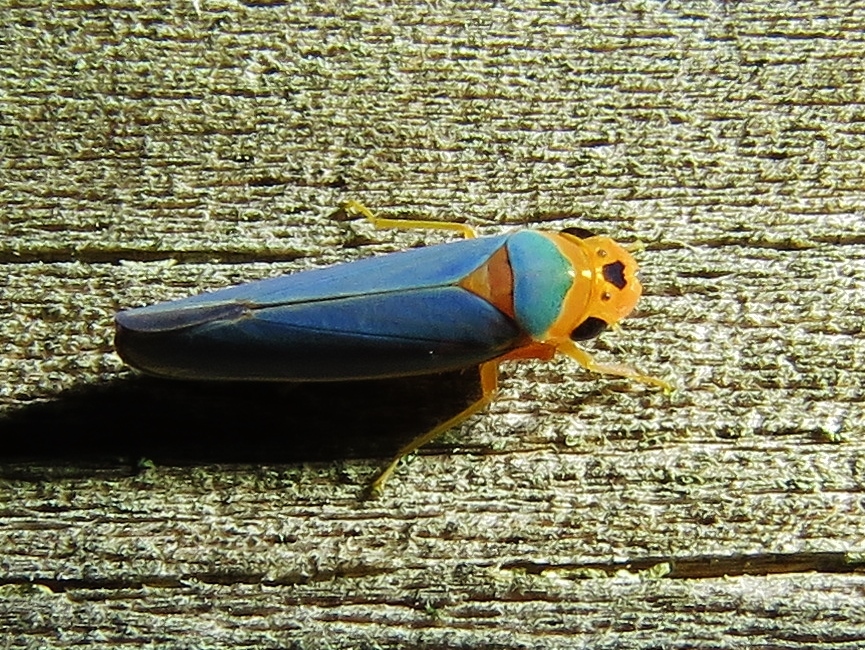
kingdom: Animalia
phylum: Arthropoda
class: Insecta
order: Hemiptera
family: Cicadellidae
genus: Macunolla
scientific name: Macunolla ventralis
